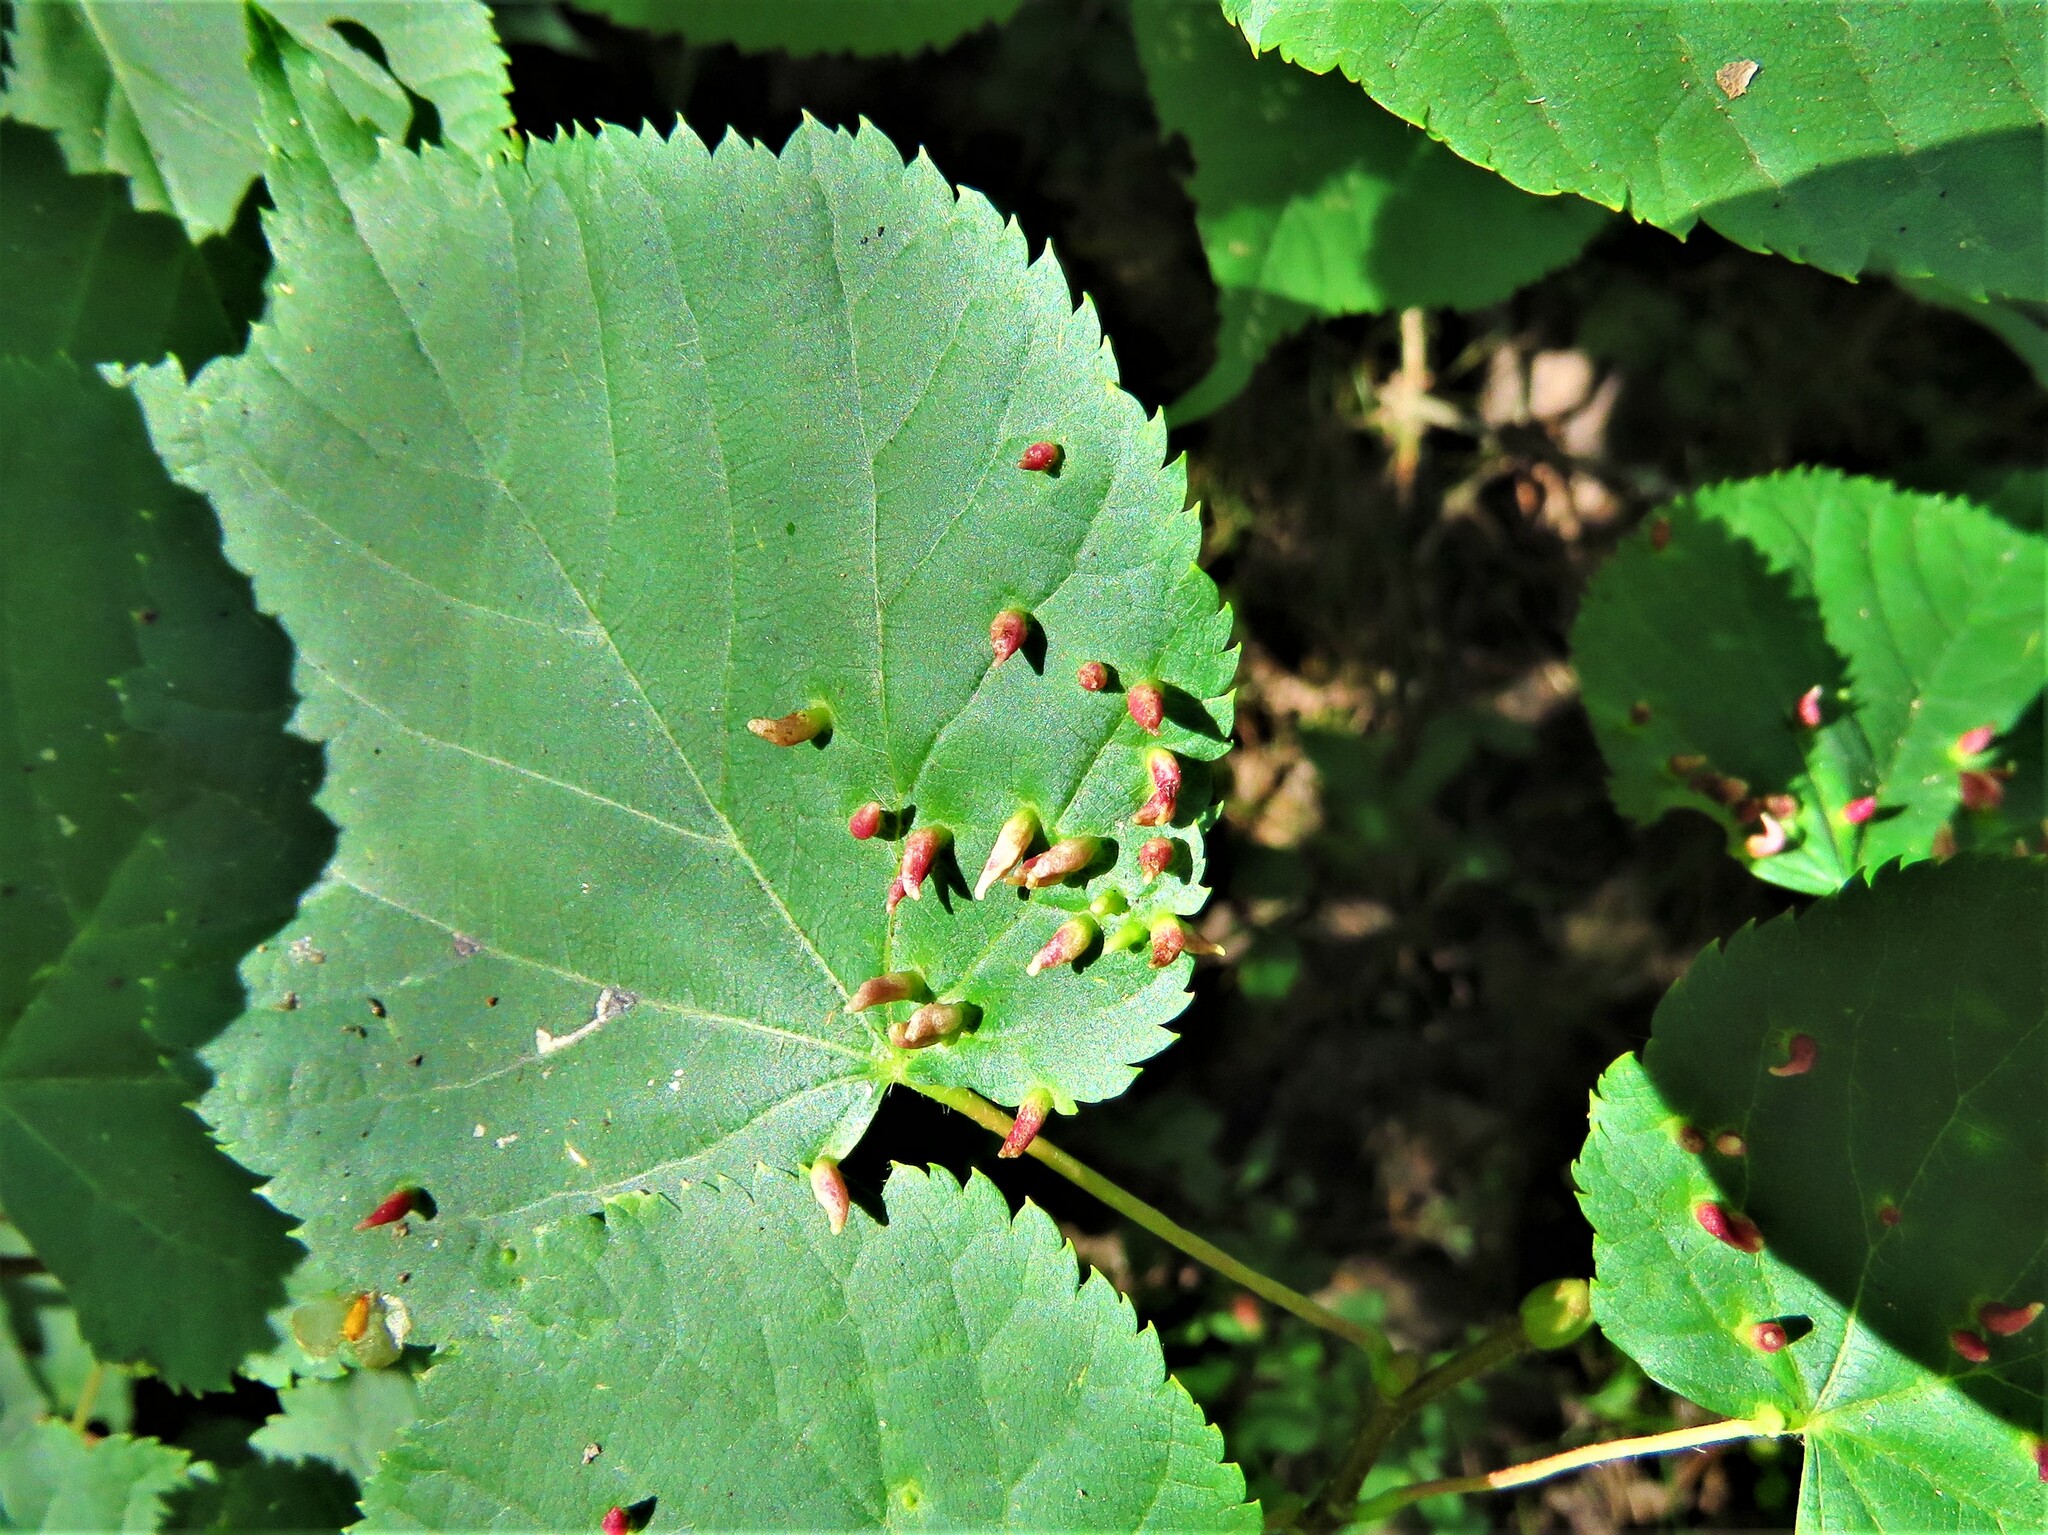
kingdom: Animalia
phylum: Arthropoda
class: Arachnida
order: Trombidiformes
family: Eriophyidae
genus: Eriophyes
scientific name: Eriophyes tiliae
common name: Red nail gall mite
